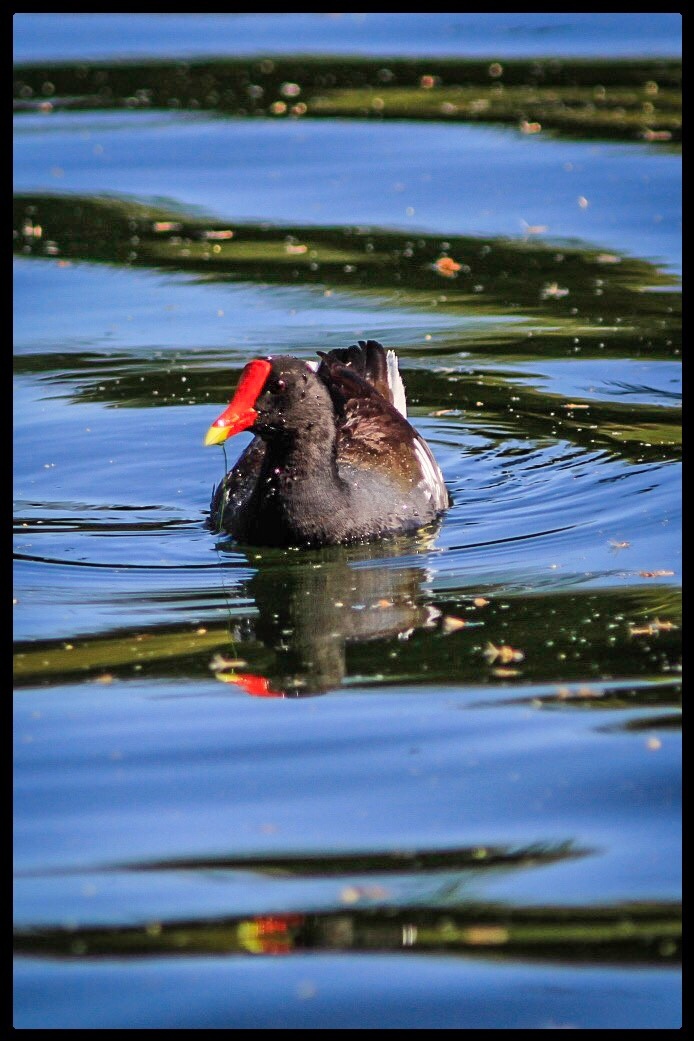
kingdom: Animalia
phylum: Chordata
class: Aves
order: Gruiformes
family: Rallidae
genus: Gallinula
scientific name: Gallinula chloropus
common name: Common moorhen
